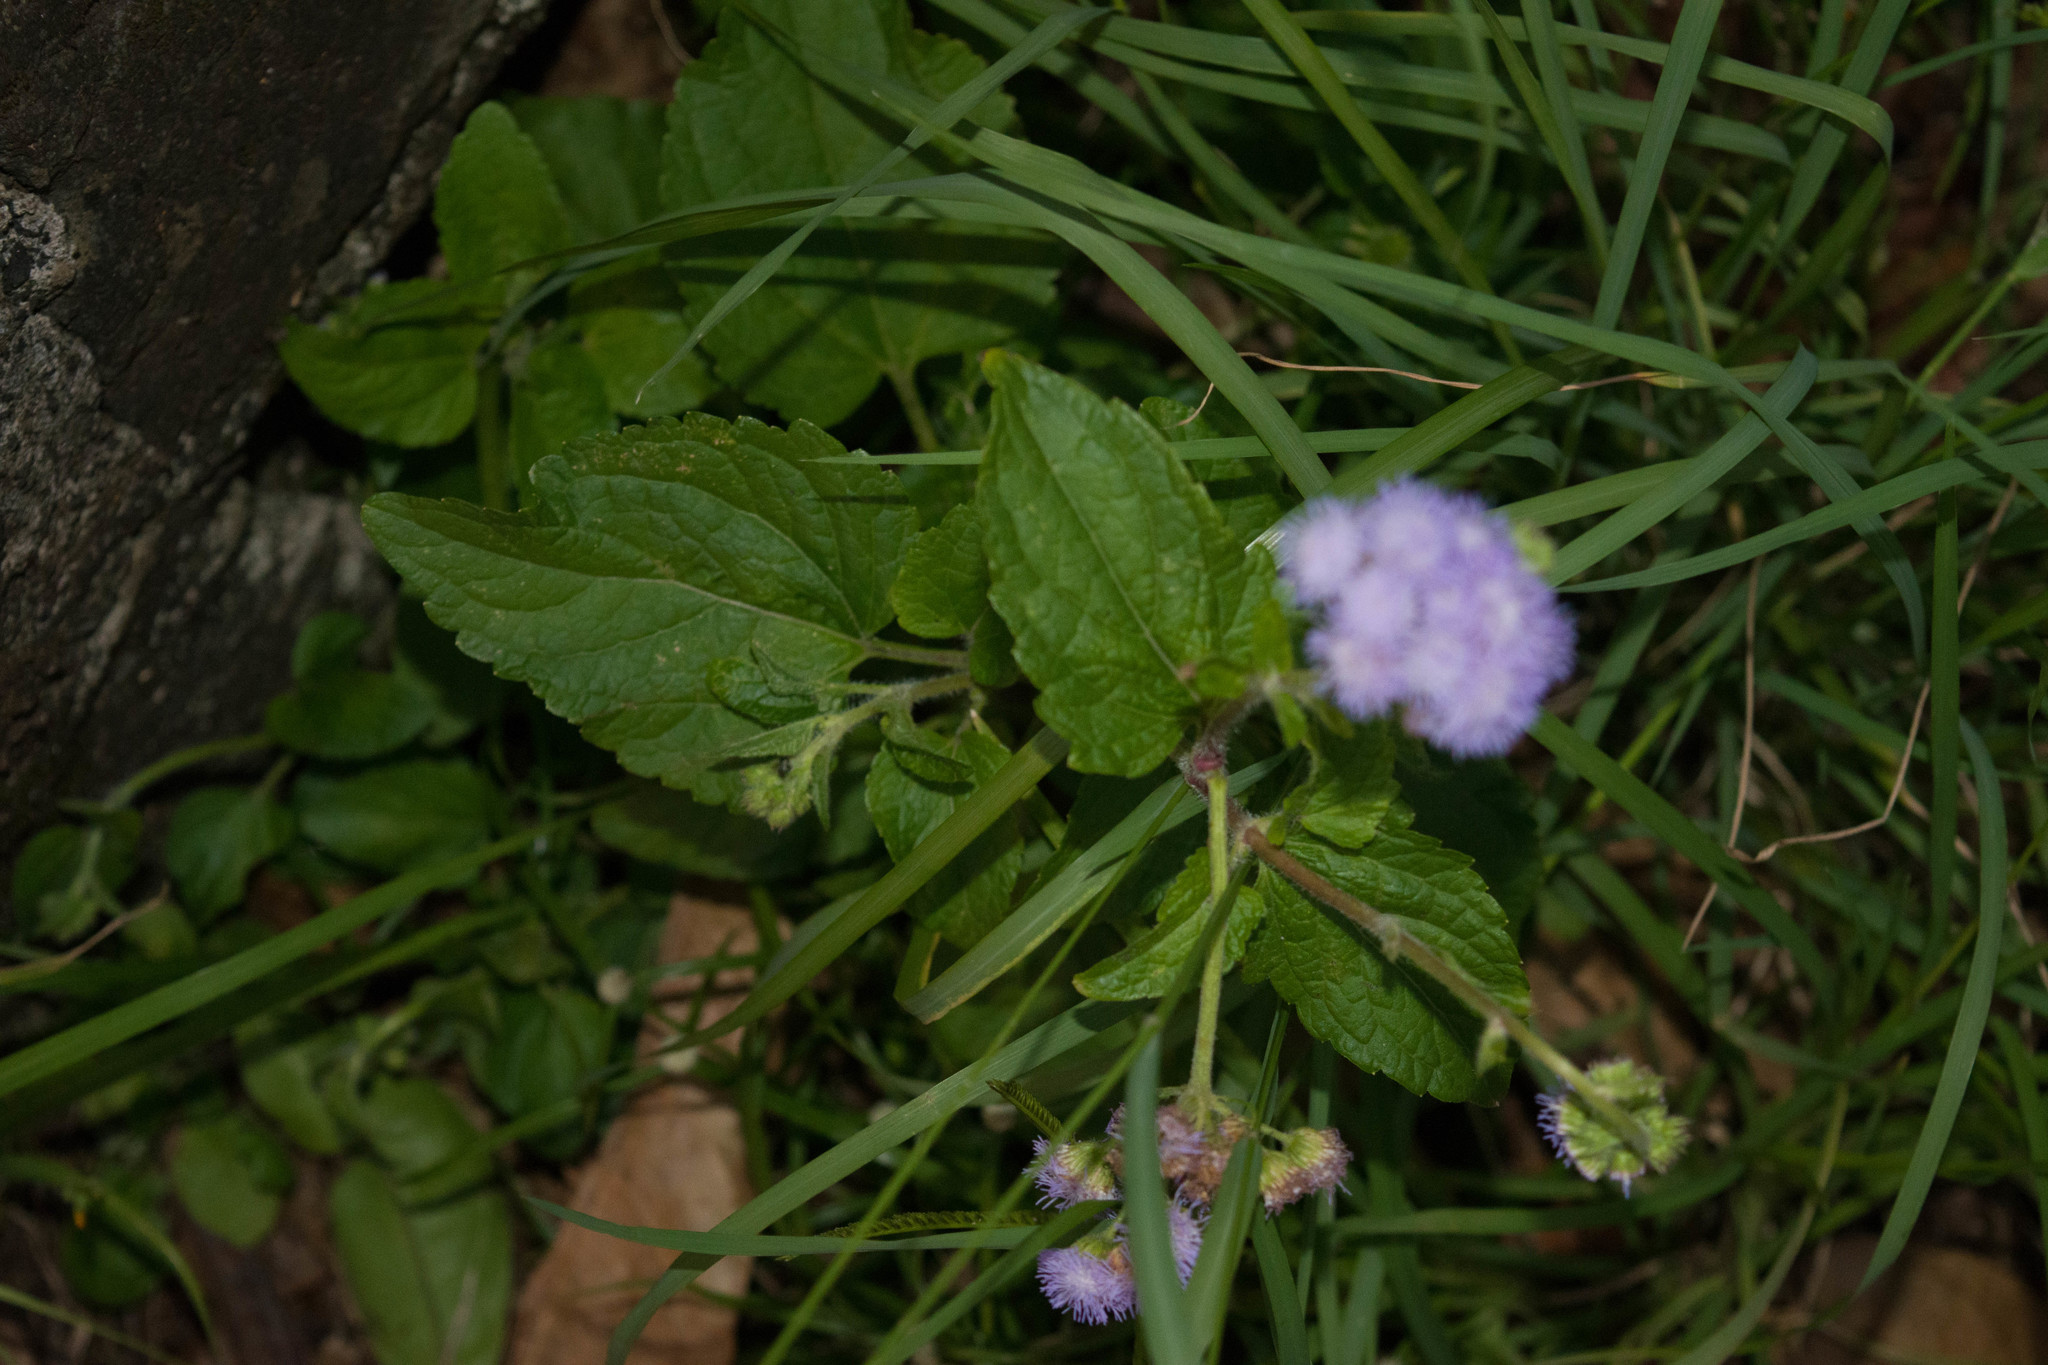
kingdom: Plantae
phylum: Tracheophyta
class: Magnoliopsida
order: Asterales
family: Asteraceae
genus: Ageratum
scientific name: Ageratum houstonianum
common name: Bluemink
